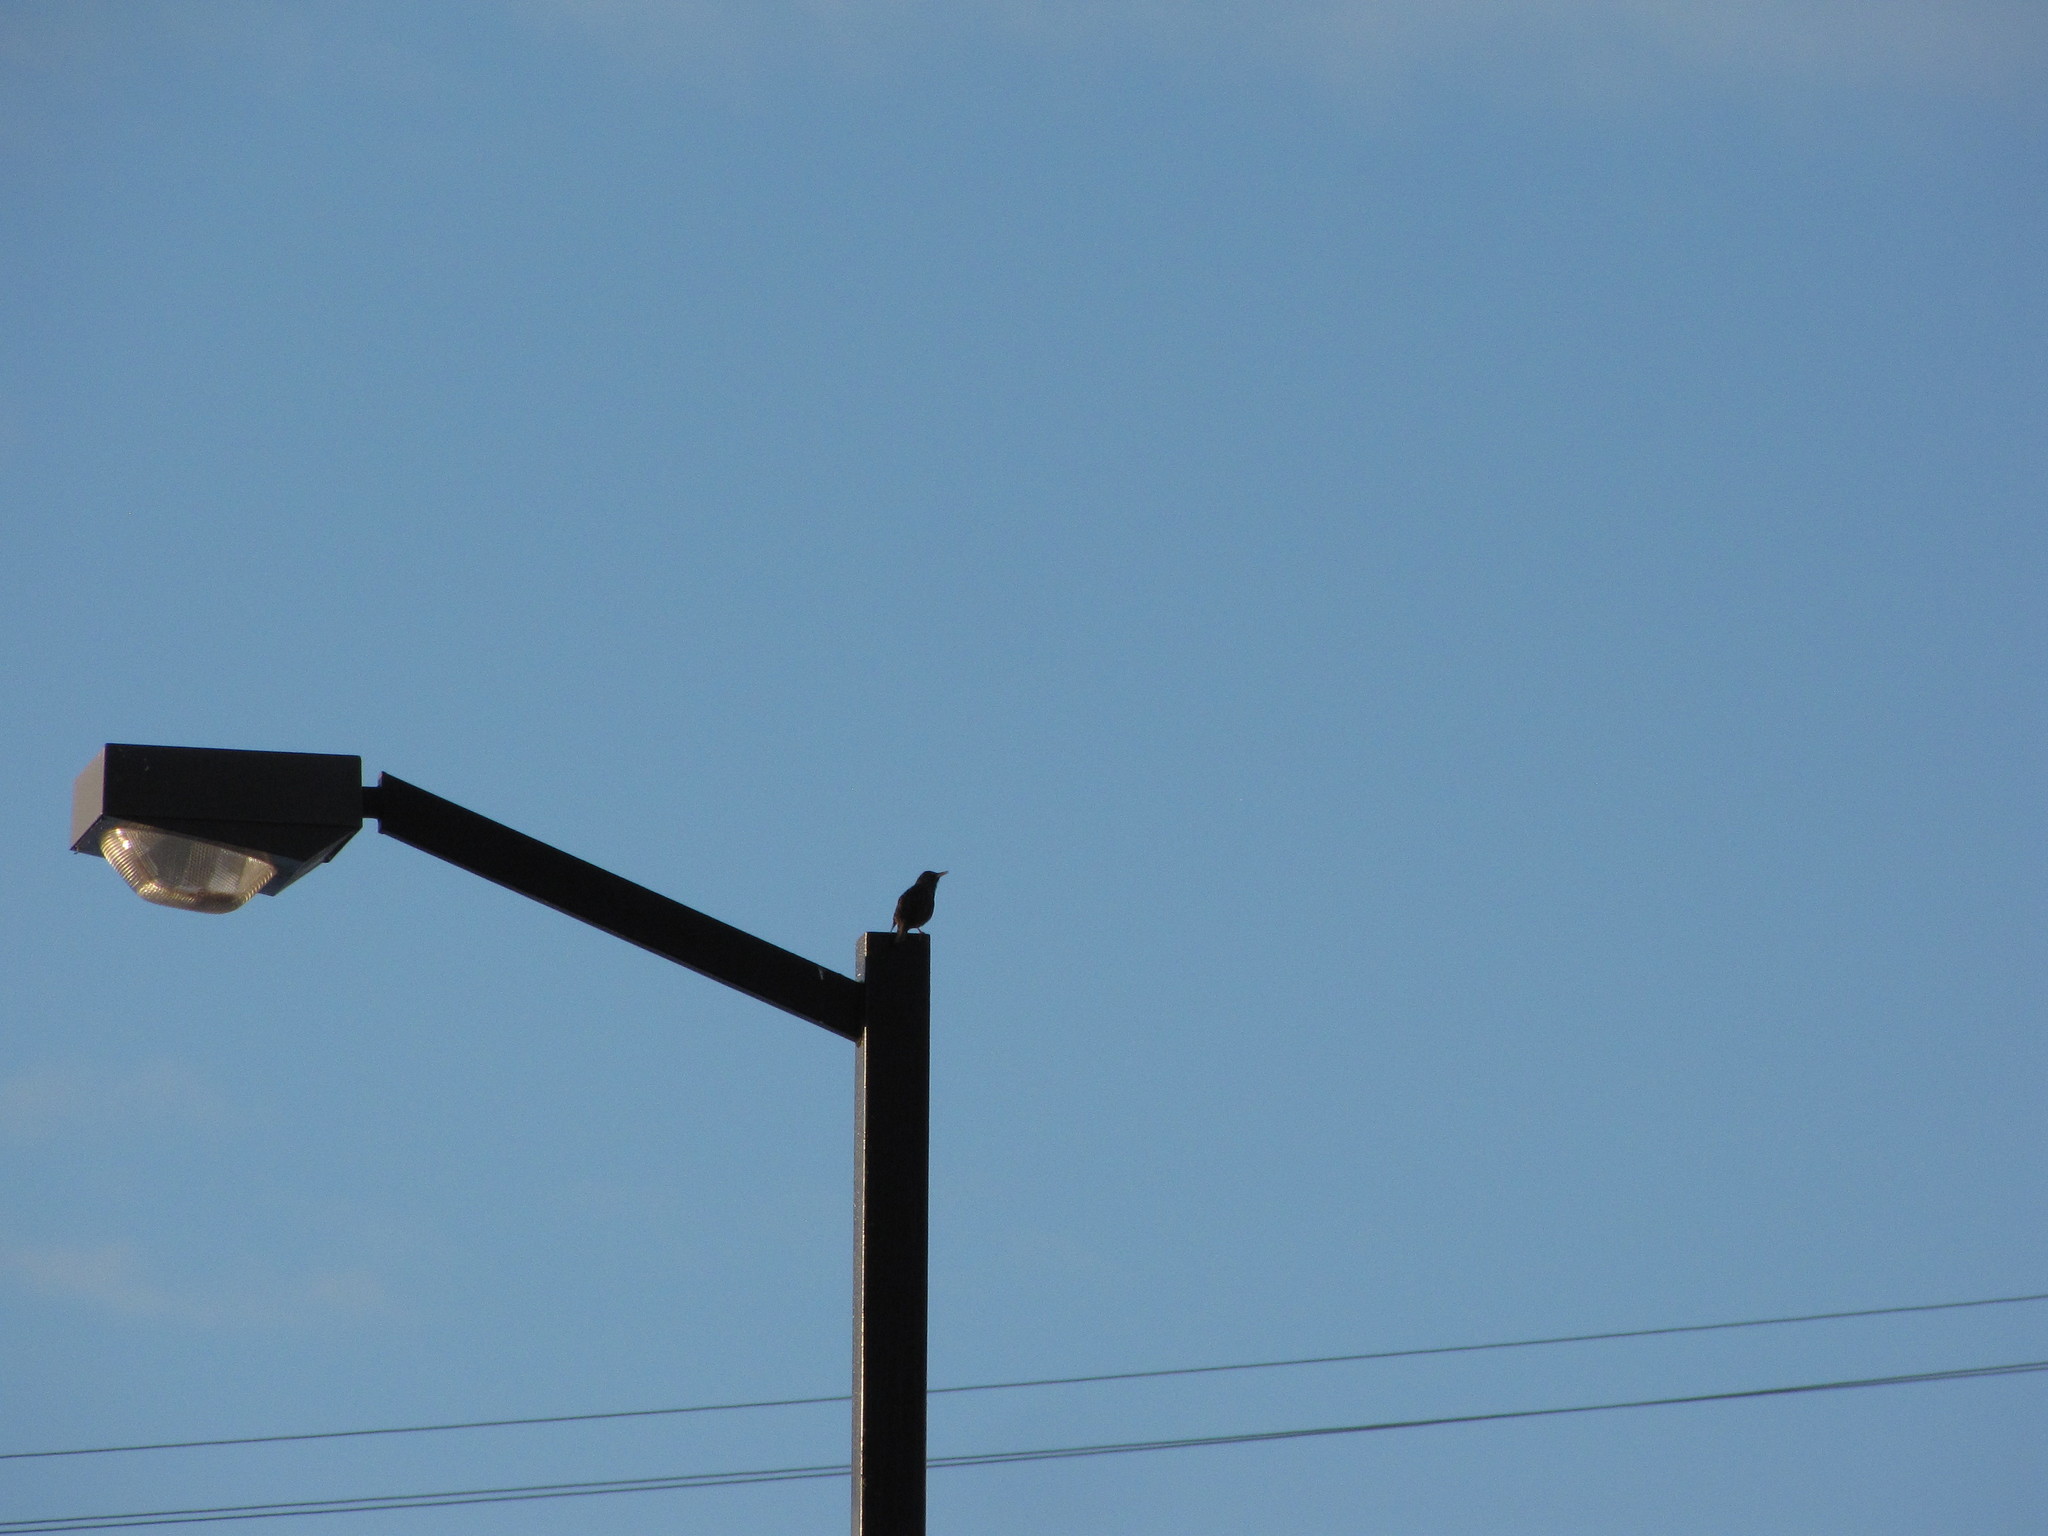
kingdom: Animalia
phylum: Chordata
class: Aves
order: Passeriformes
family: Sturnidae
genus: Sturnus
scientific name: Sturnus vulgaris
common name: Common starling
